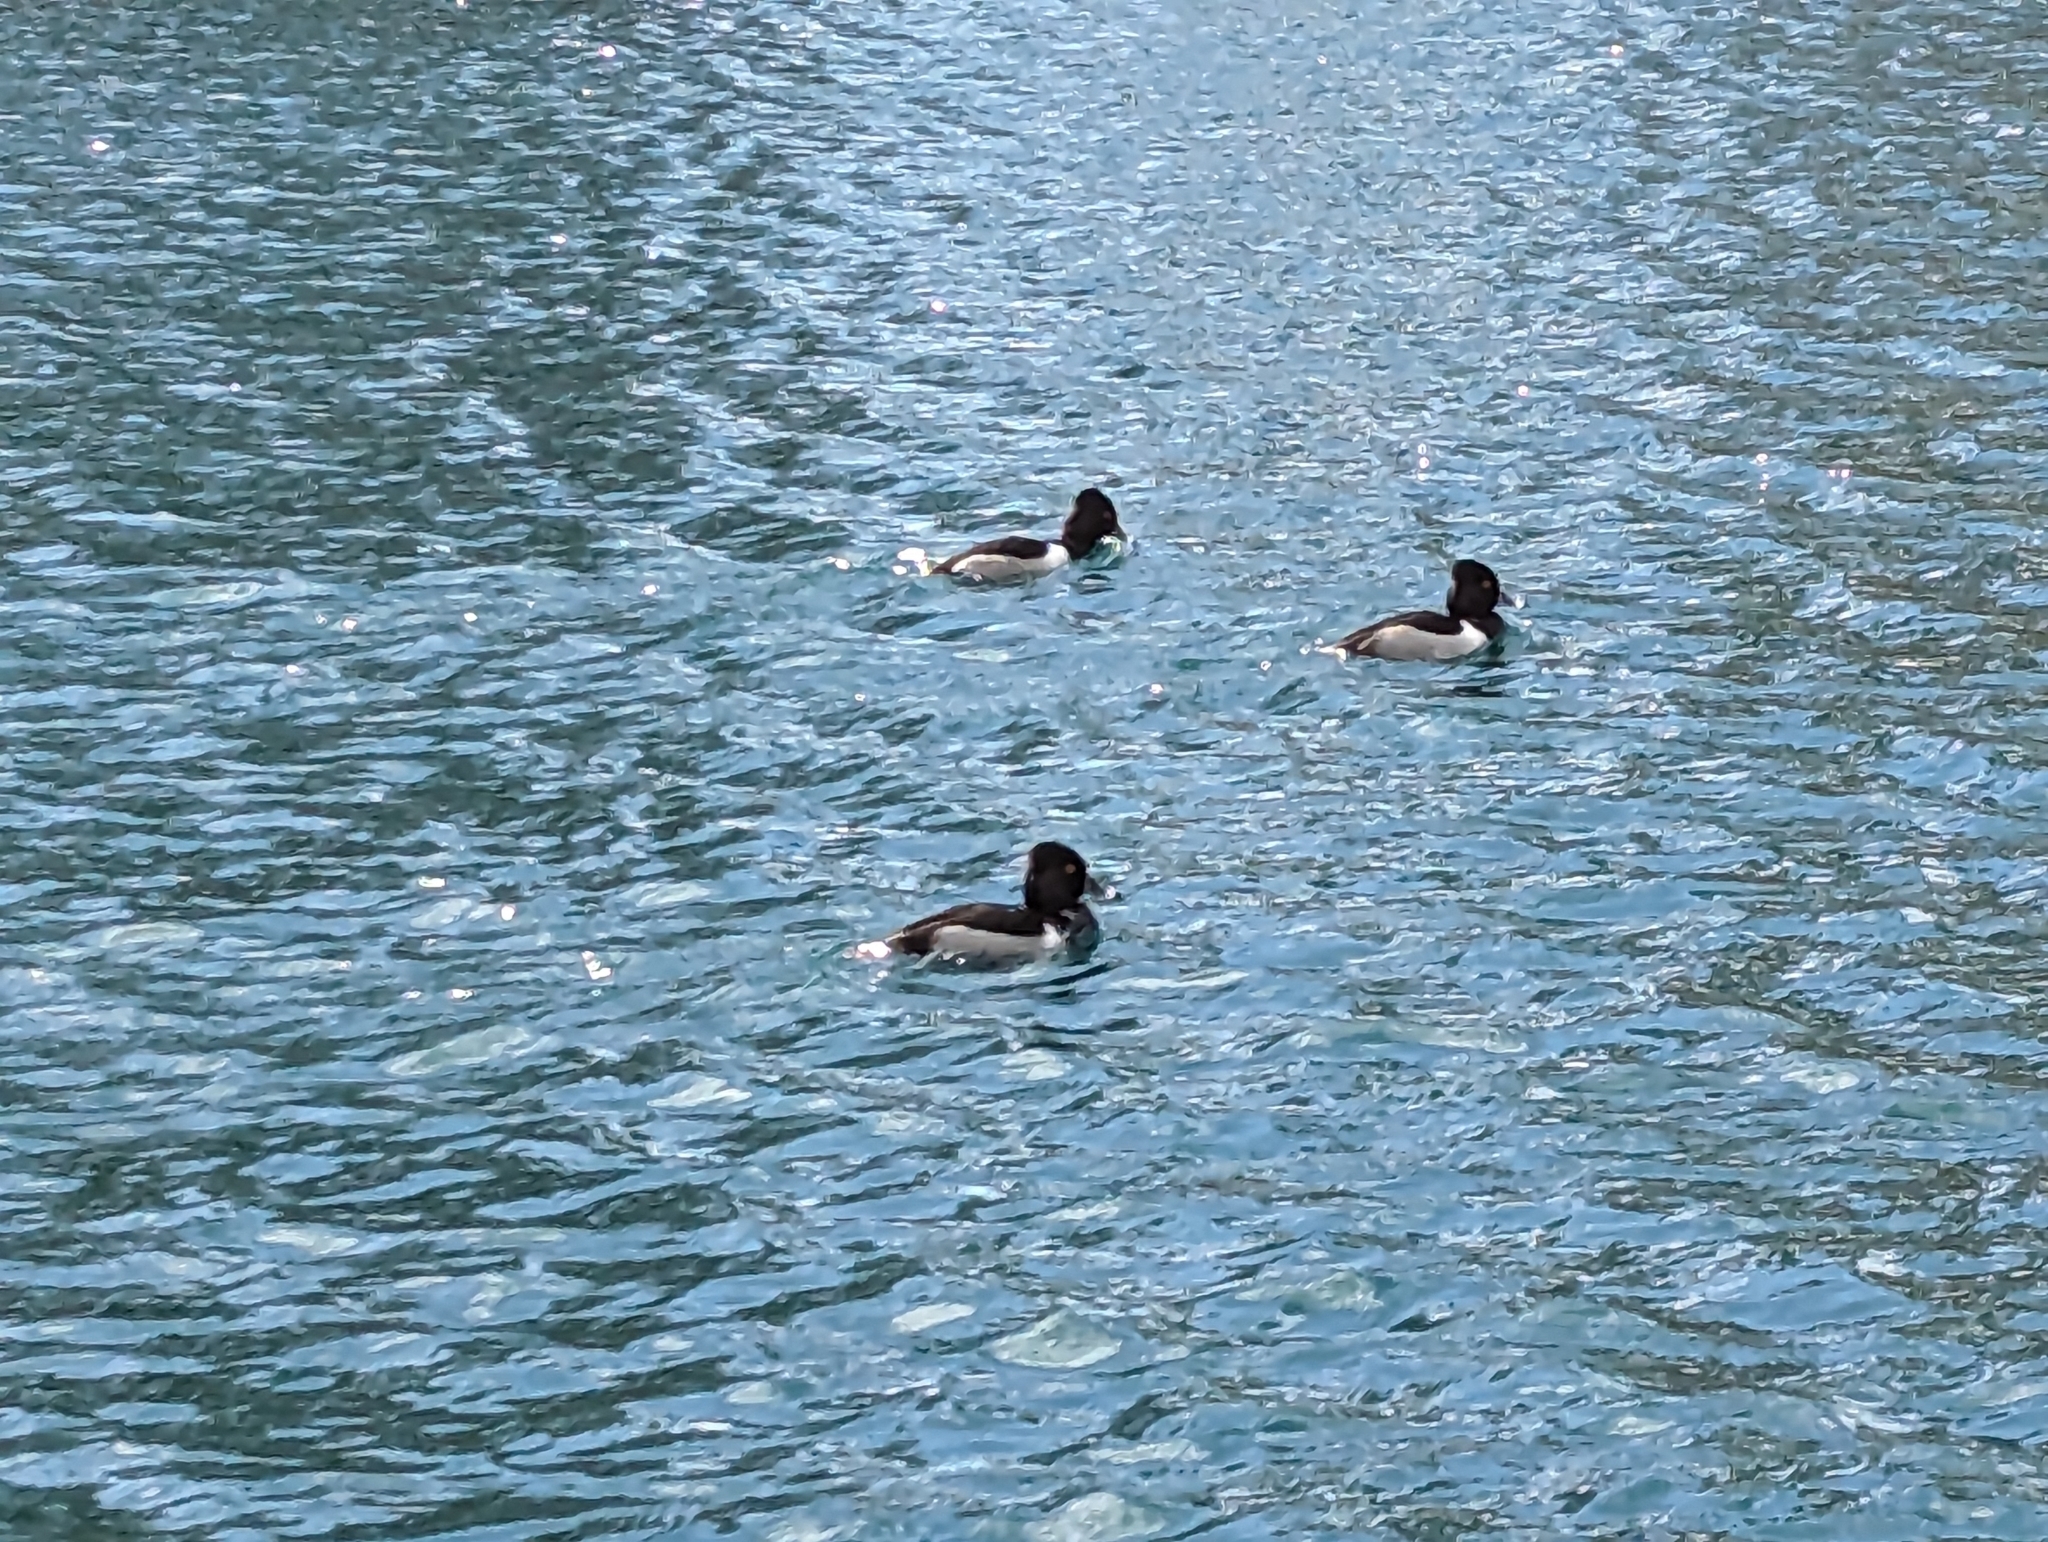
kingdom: Animalia
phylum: Chordata
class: Aves
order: Anseriformes
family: Anatidae
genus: Aythya
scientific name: Aythya collaris
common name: Ring-necked duck
